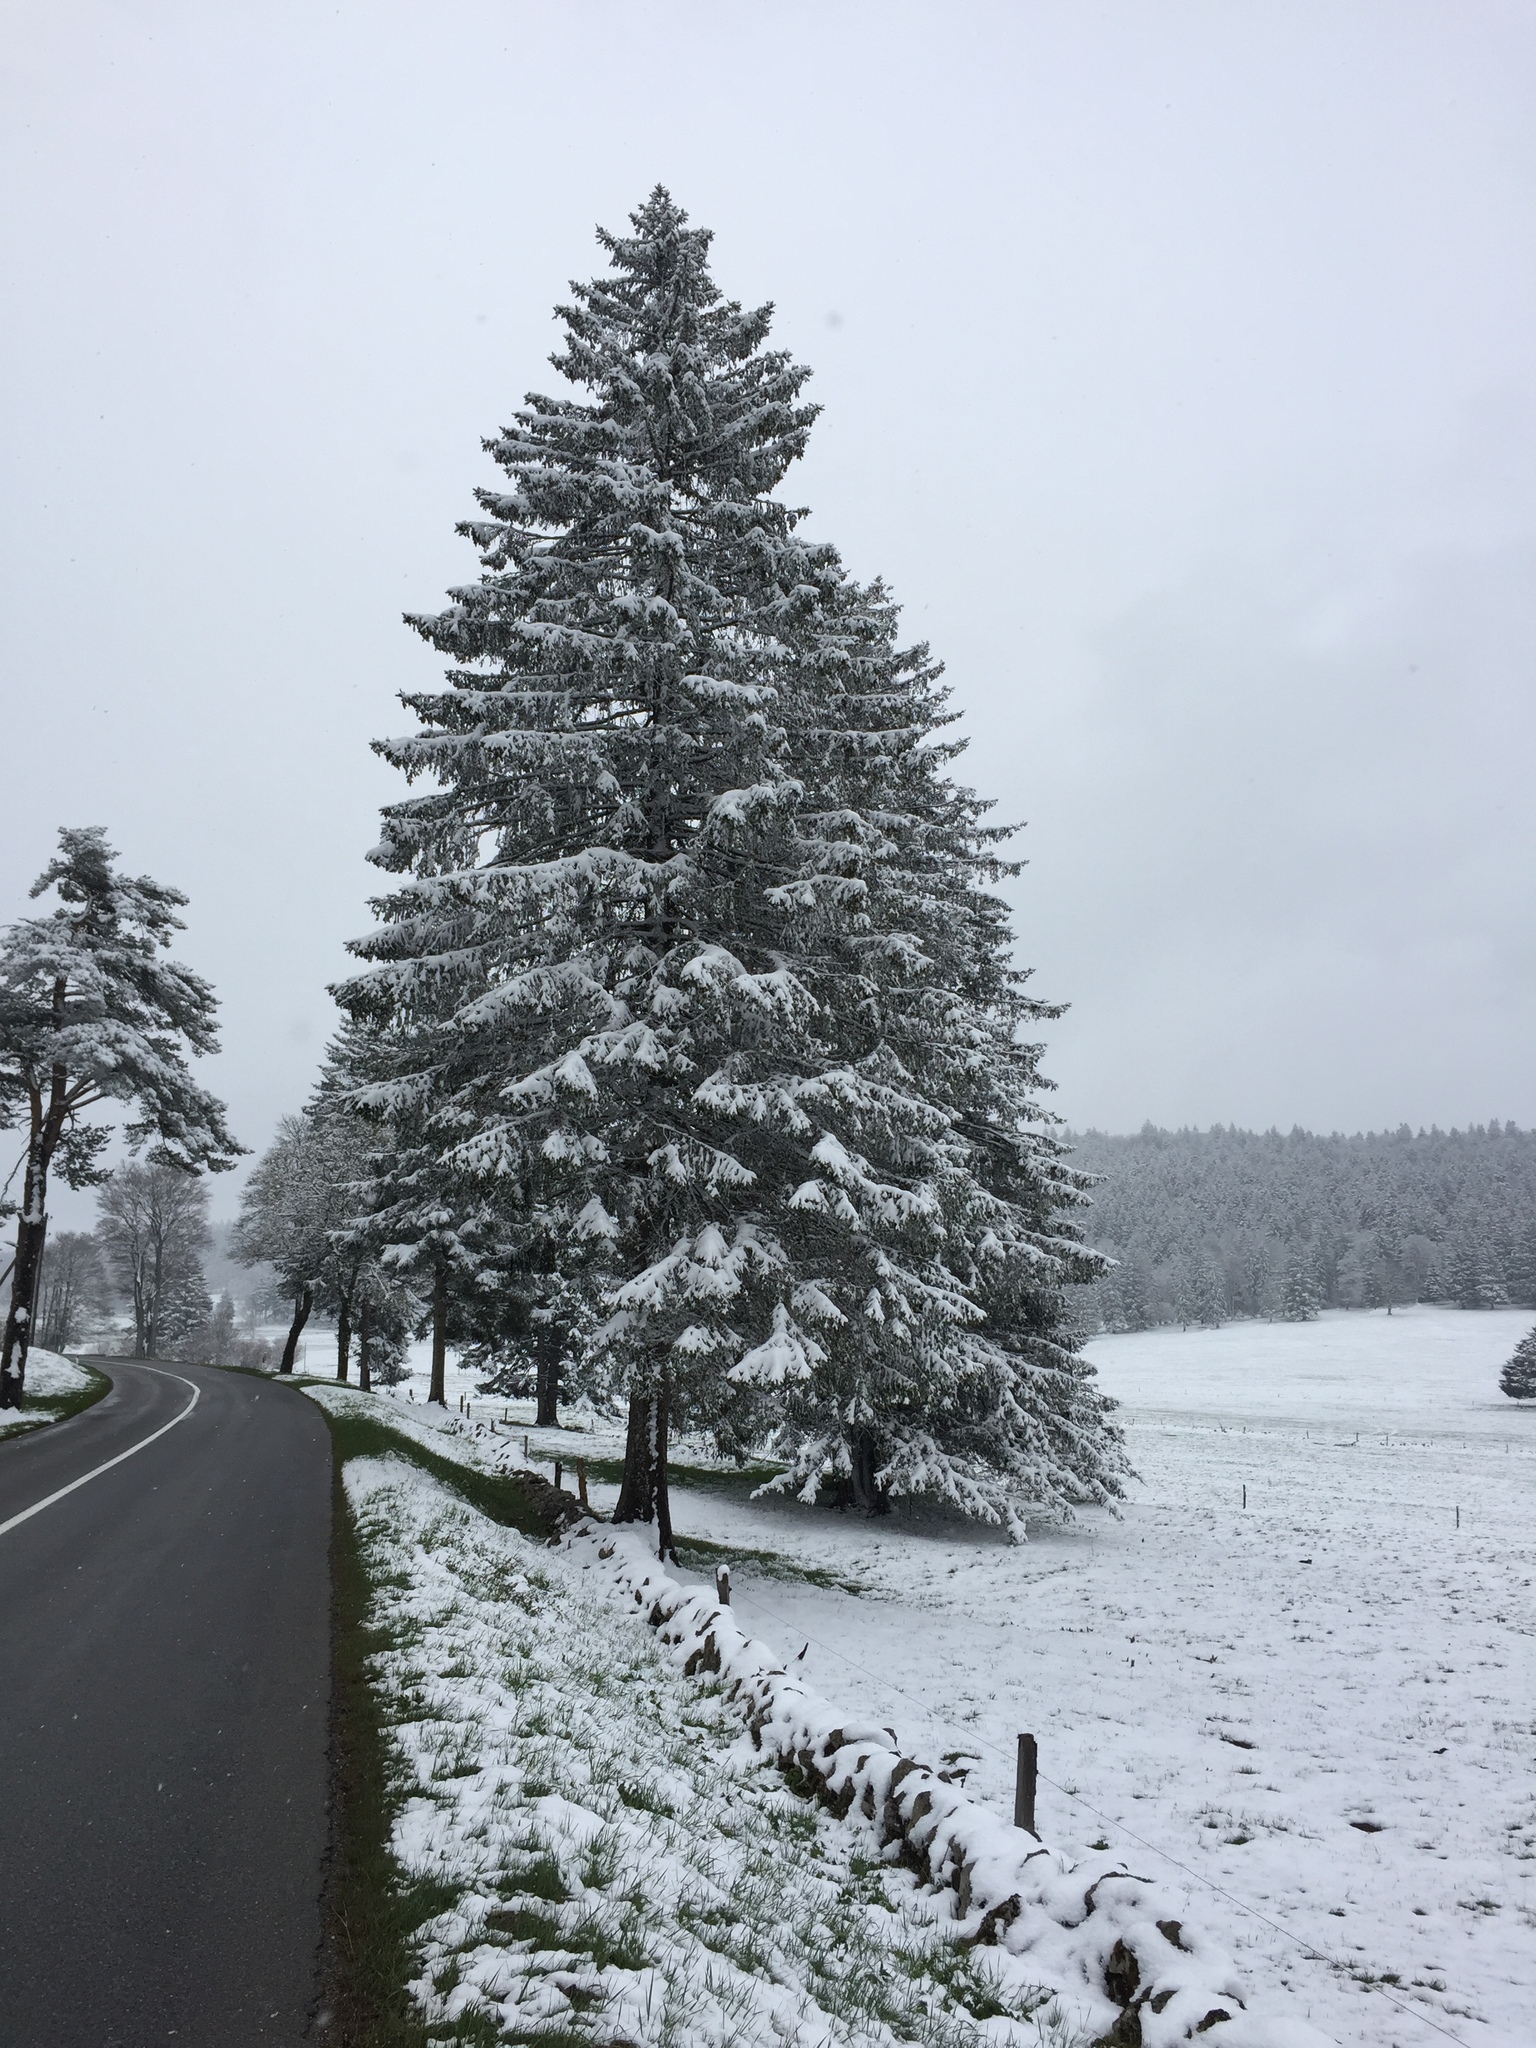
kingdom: Plantae
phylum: Tracheophyta
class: Pinopsida
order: Pinales
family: Pinaceae
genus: Picea
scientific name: Picea abies
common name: Norway spruce
